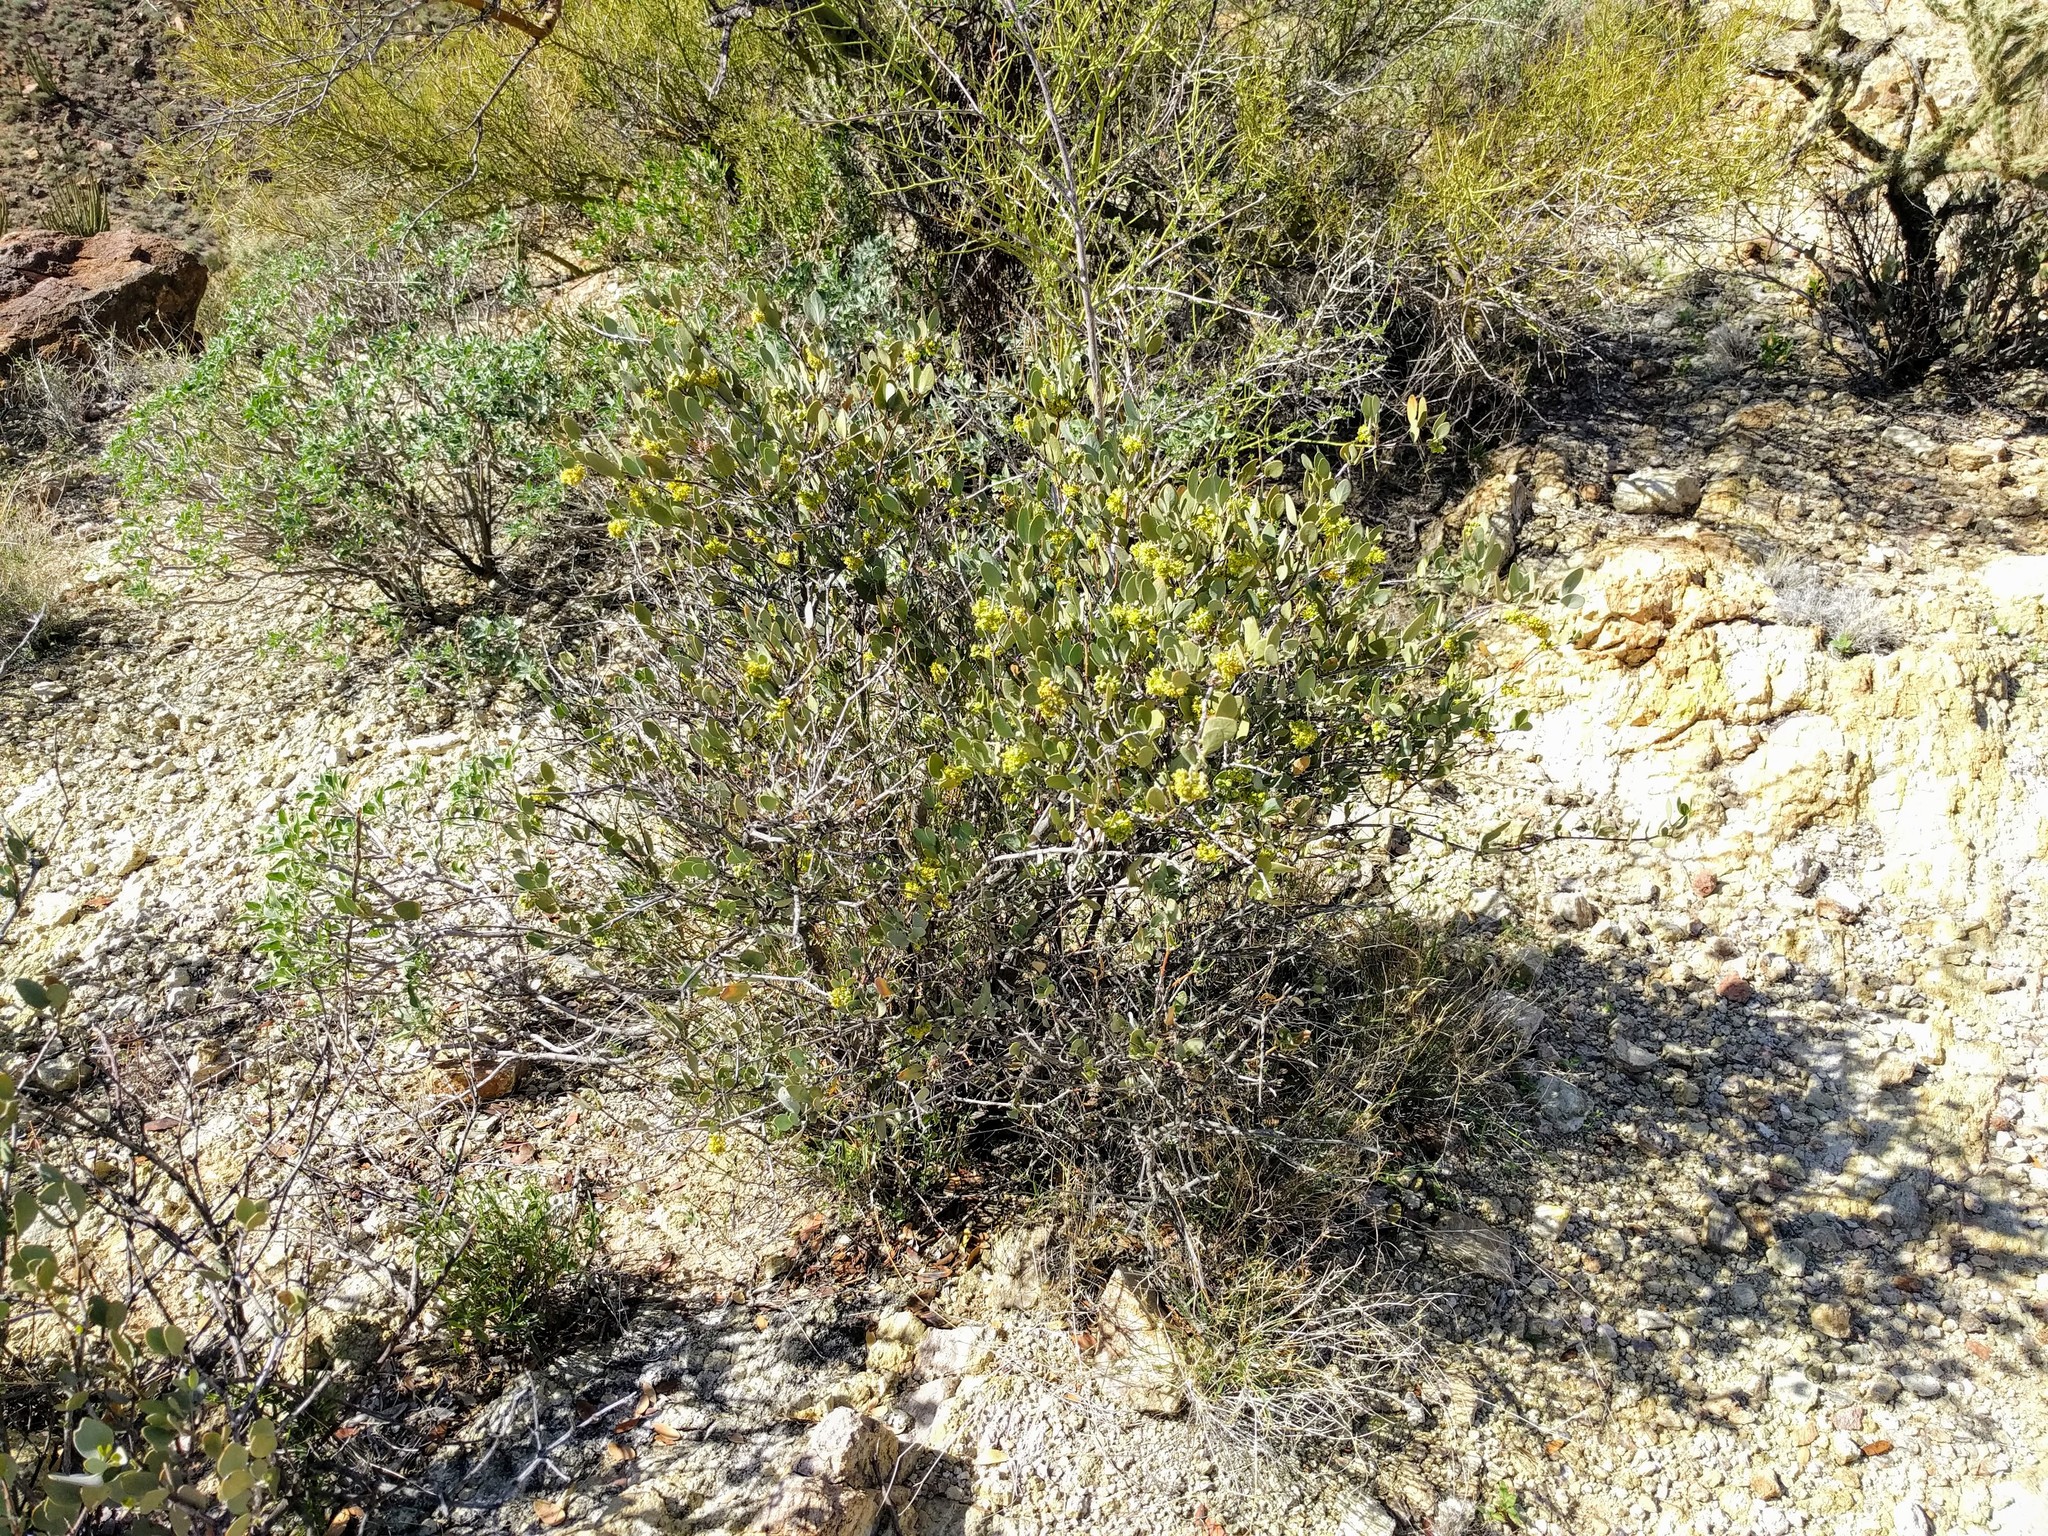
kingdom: Plantae
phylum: Tracheophyta
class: Magnoliopsida
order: Caryophyllales
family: Simmondsiaceae
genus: Simmondsia
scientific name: Simmondsia chinensis
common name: Jojoba
